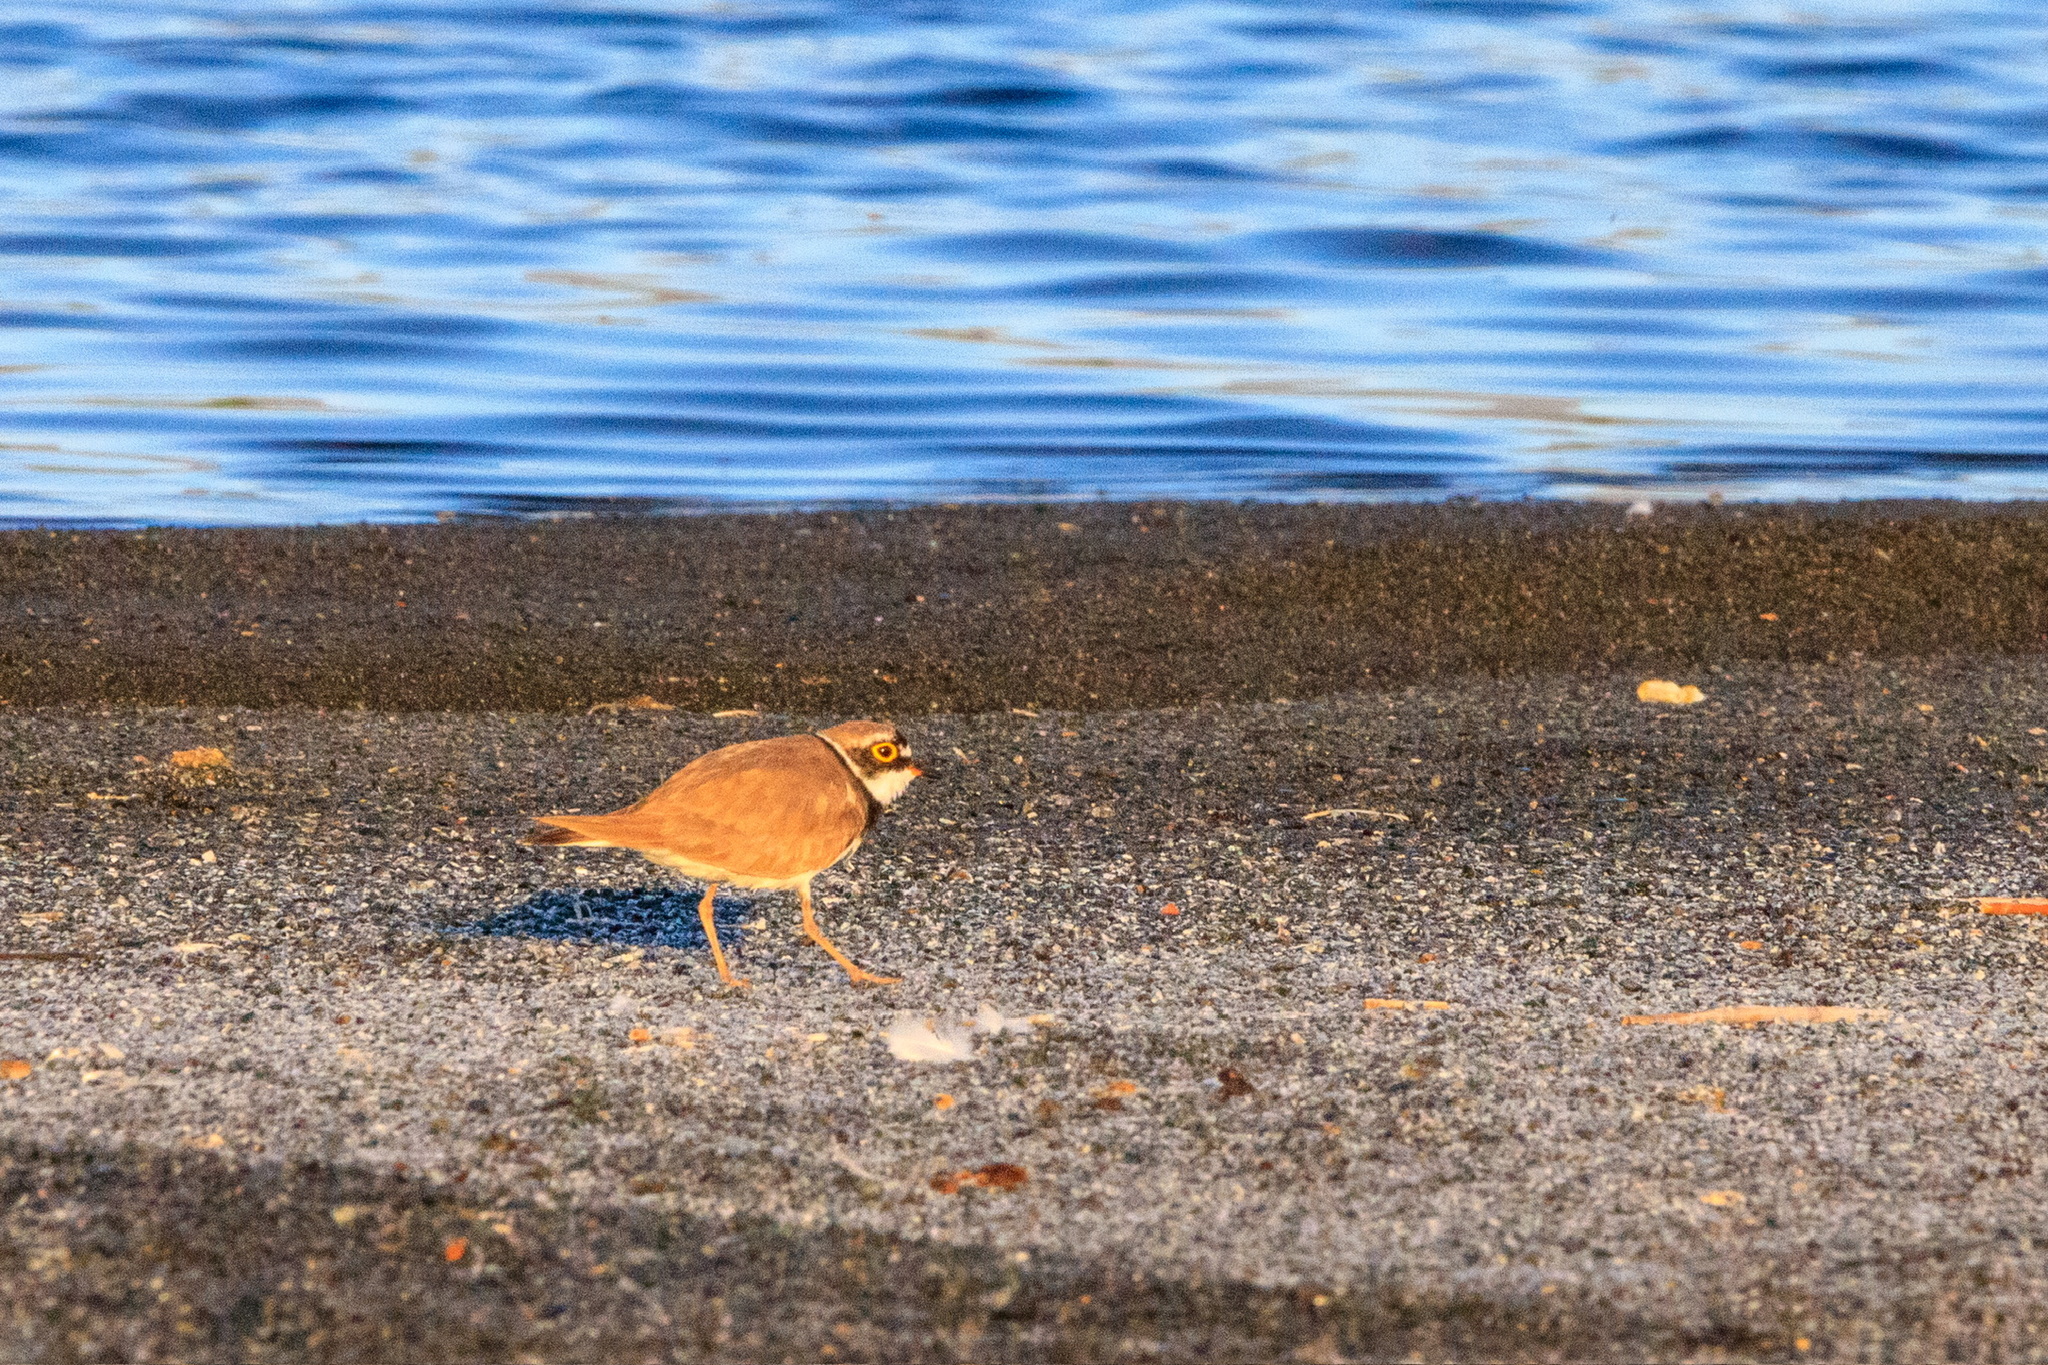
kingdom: Animalia
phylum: Chordata
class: Aves
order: Charadriiformes
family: Charadriidae
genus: Charadrius
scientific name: Charadrius dubius
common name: Little ringed plover
